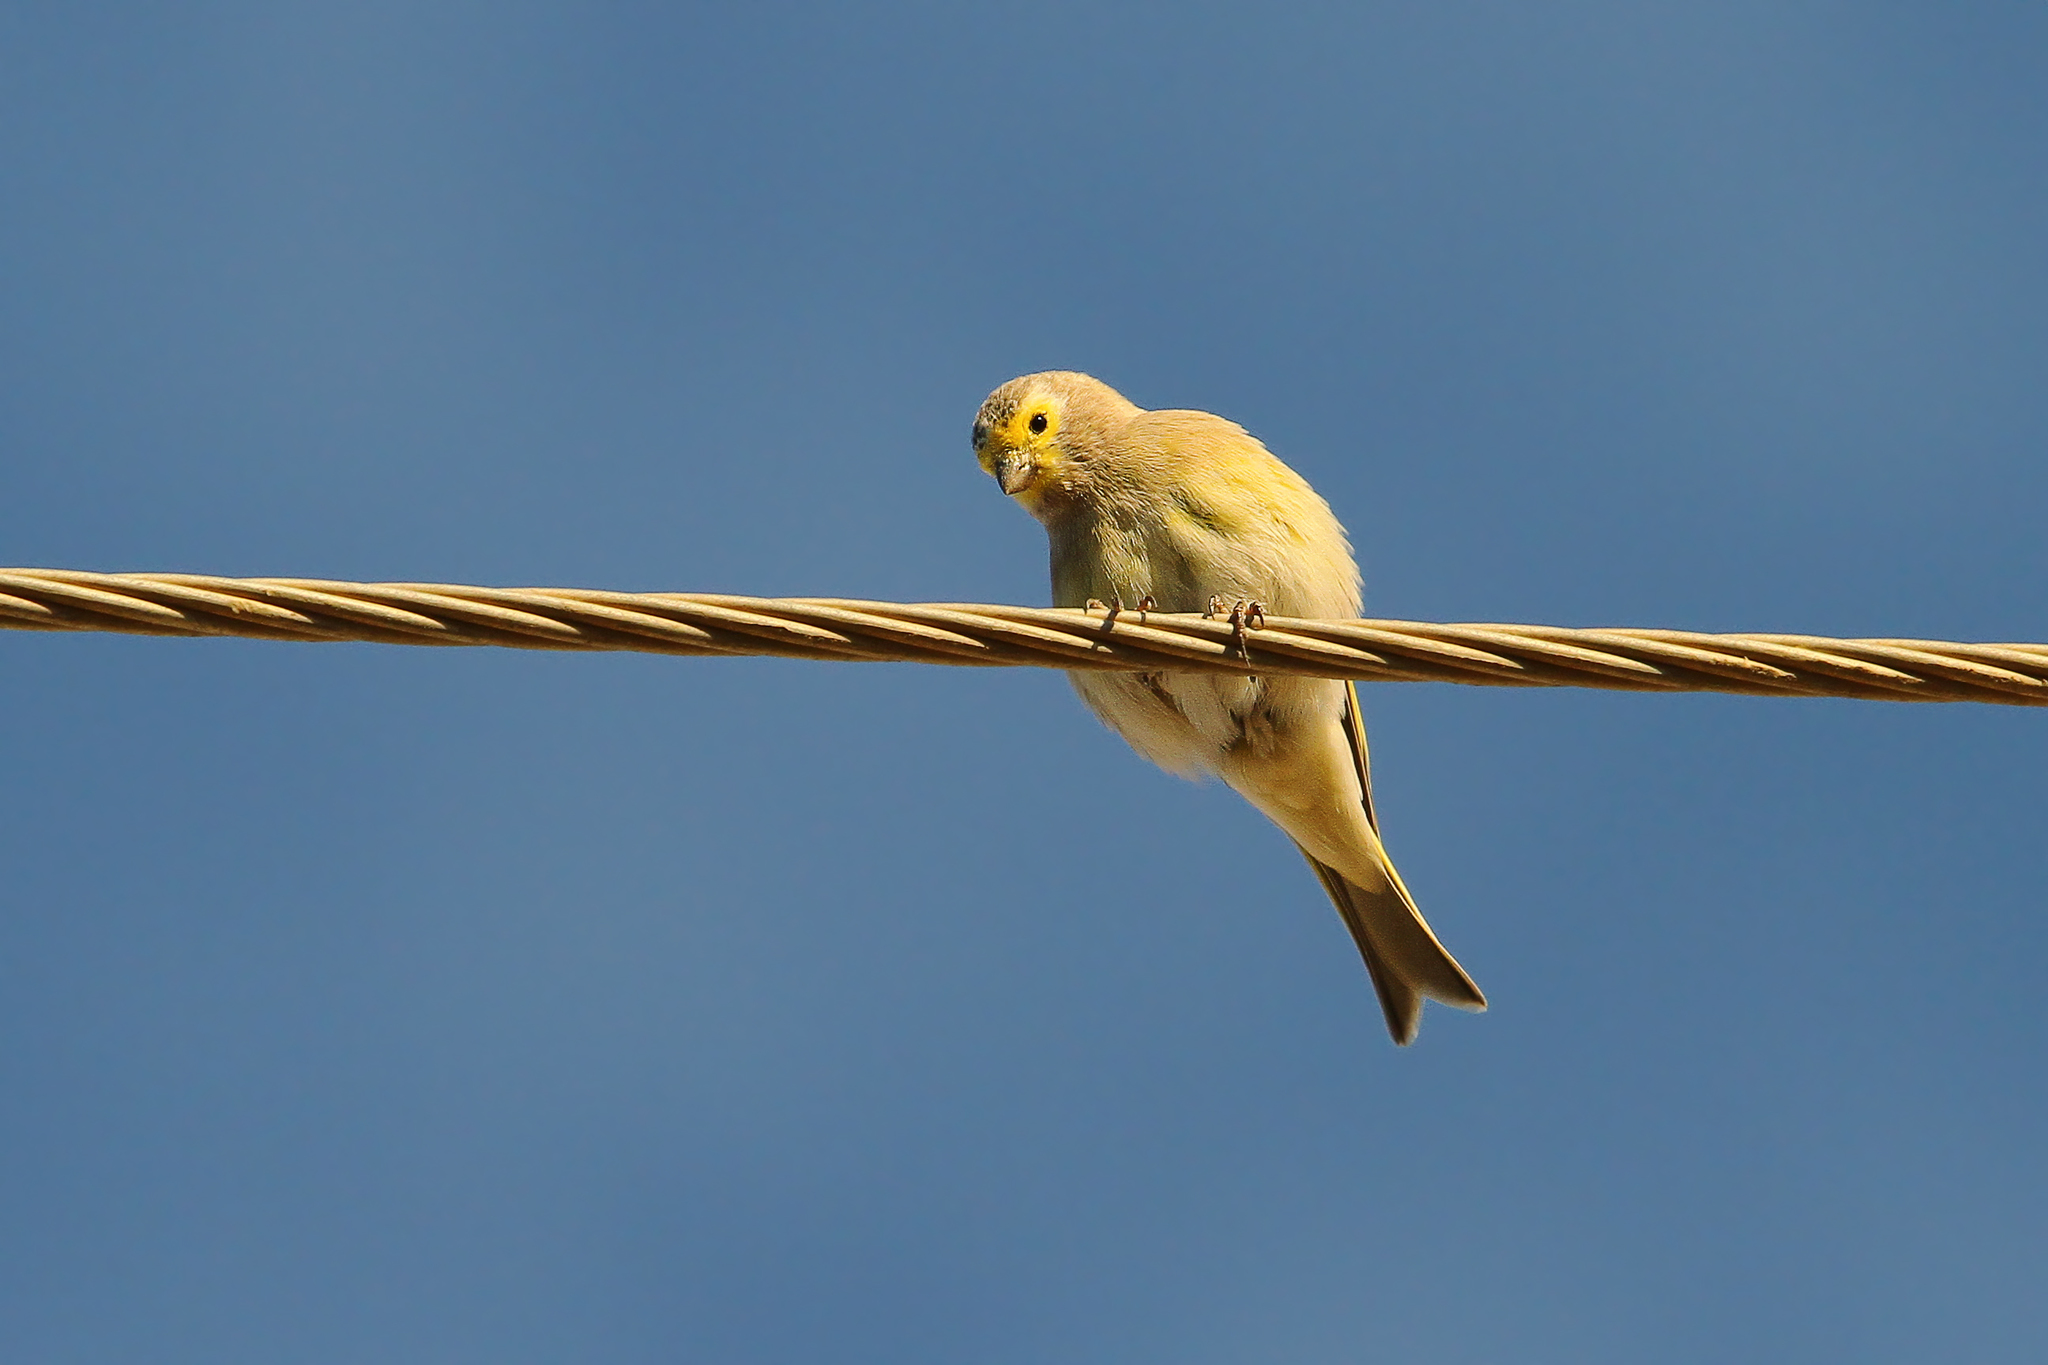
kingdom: Animalia
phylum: Chordata
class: Aves
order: Passeriformes
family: Fringillidae
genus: Serinus
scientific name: Serinus syriacus
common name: Syrian serin
